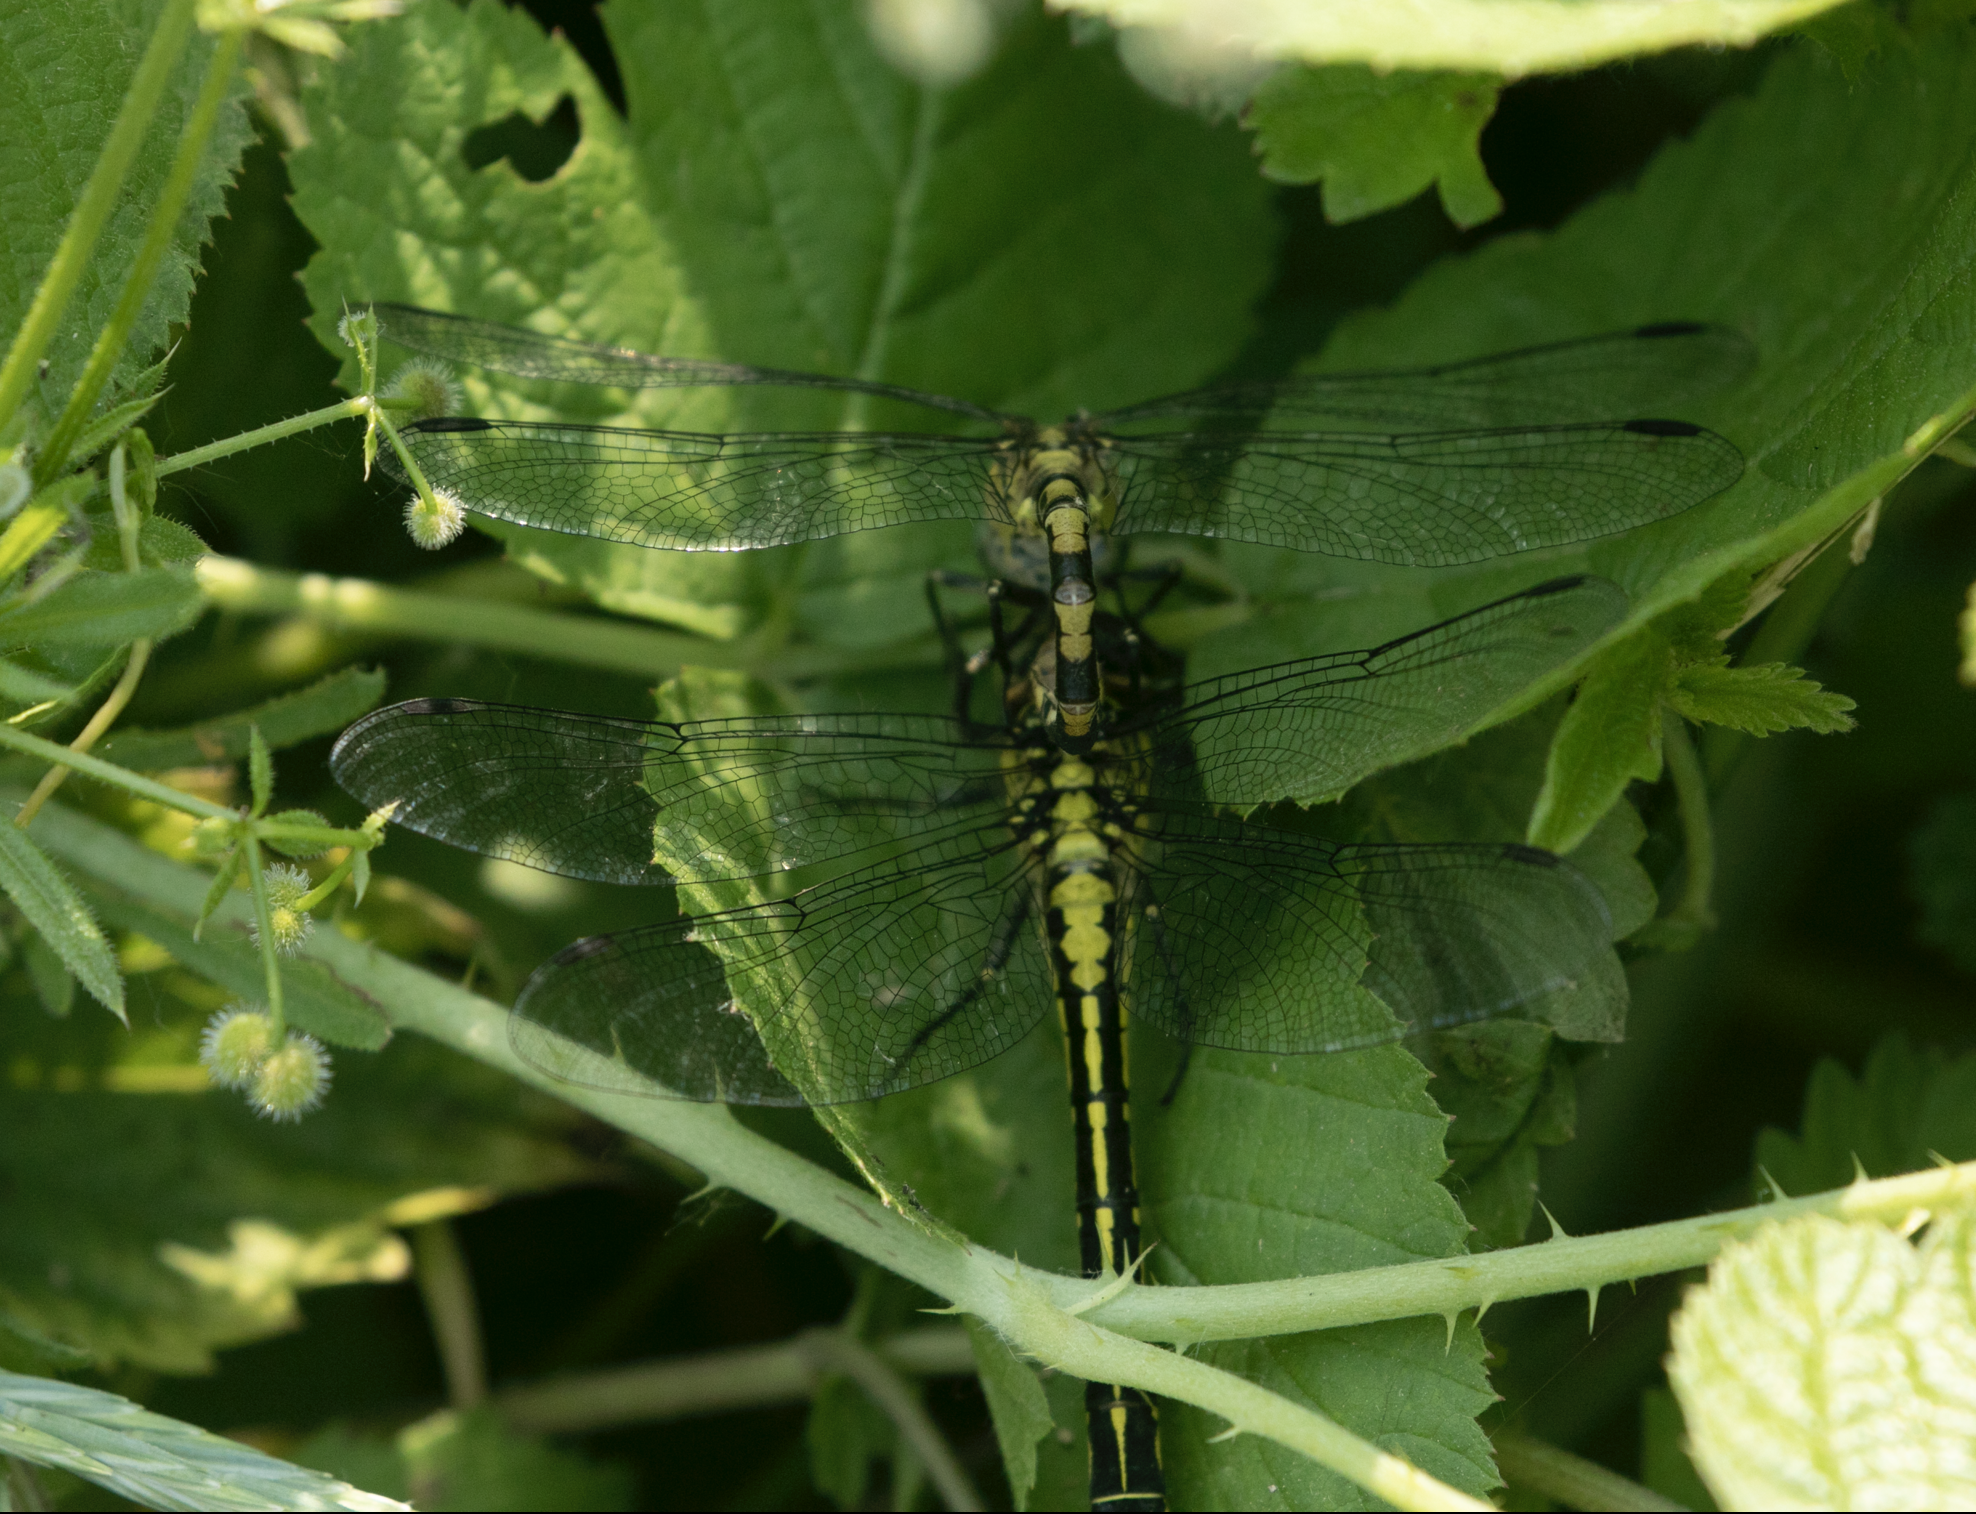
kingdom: Animalia
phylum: Arthropoda
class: Insecta
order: Odonata
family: Gomphidae
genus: Gomphus
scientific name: Gomphus vulgatissimus
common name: Club-tailed dragonfly
